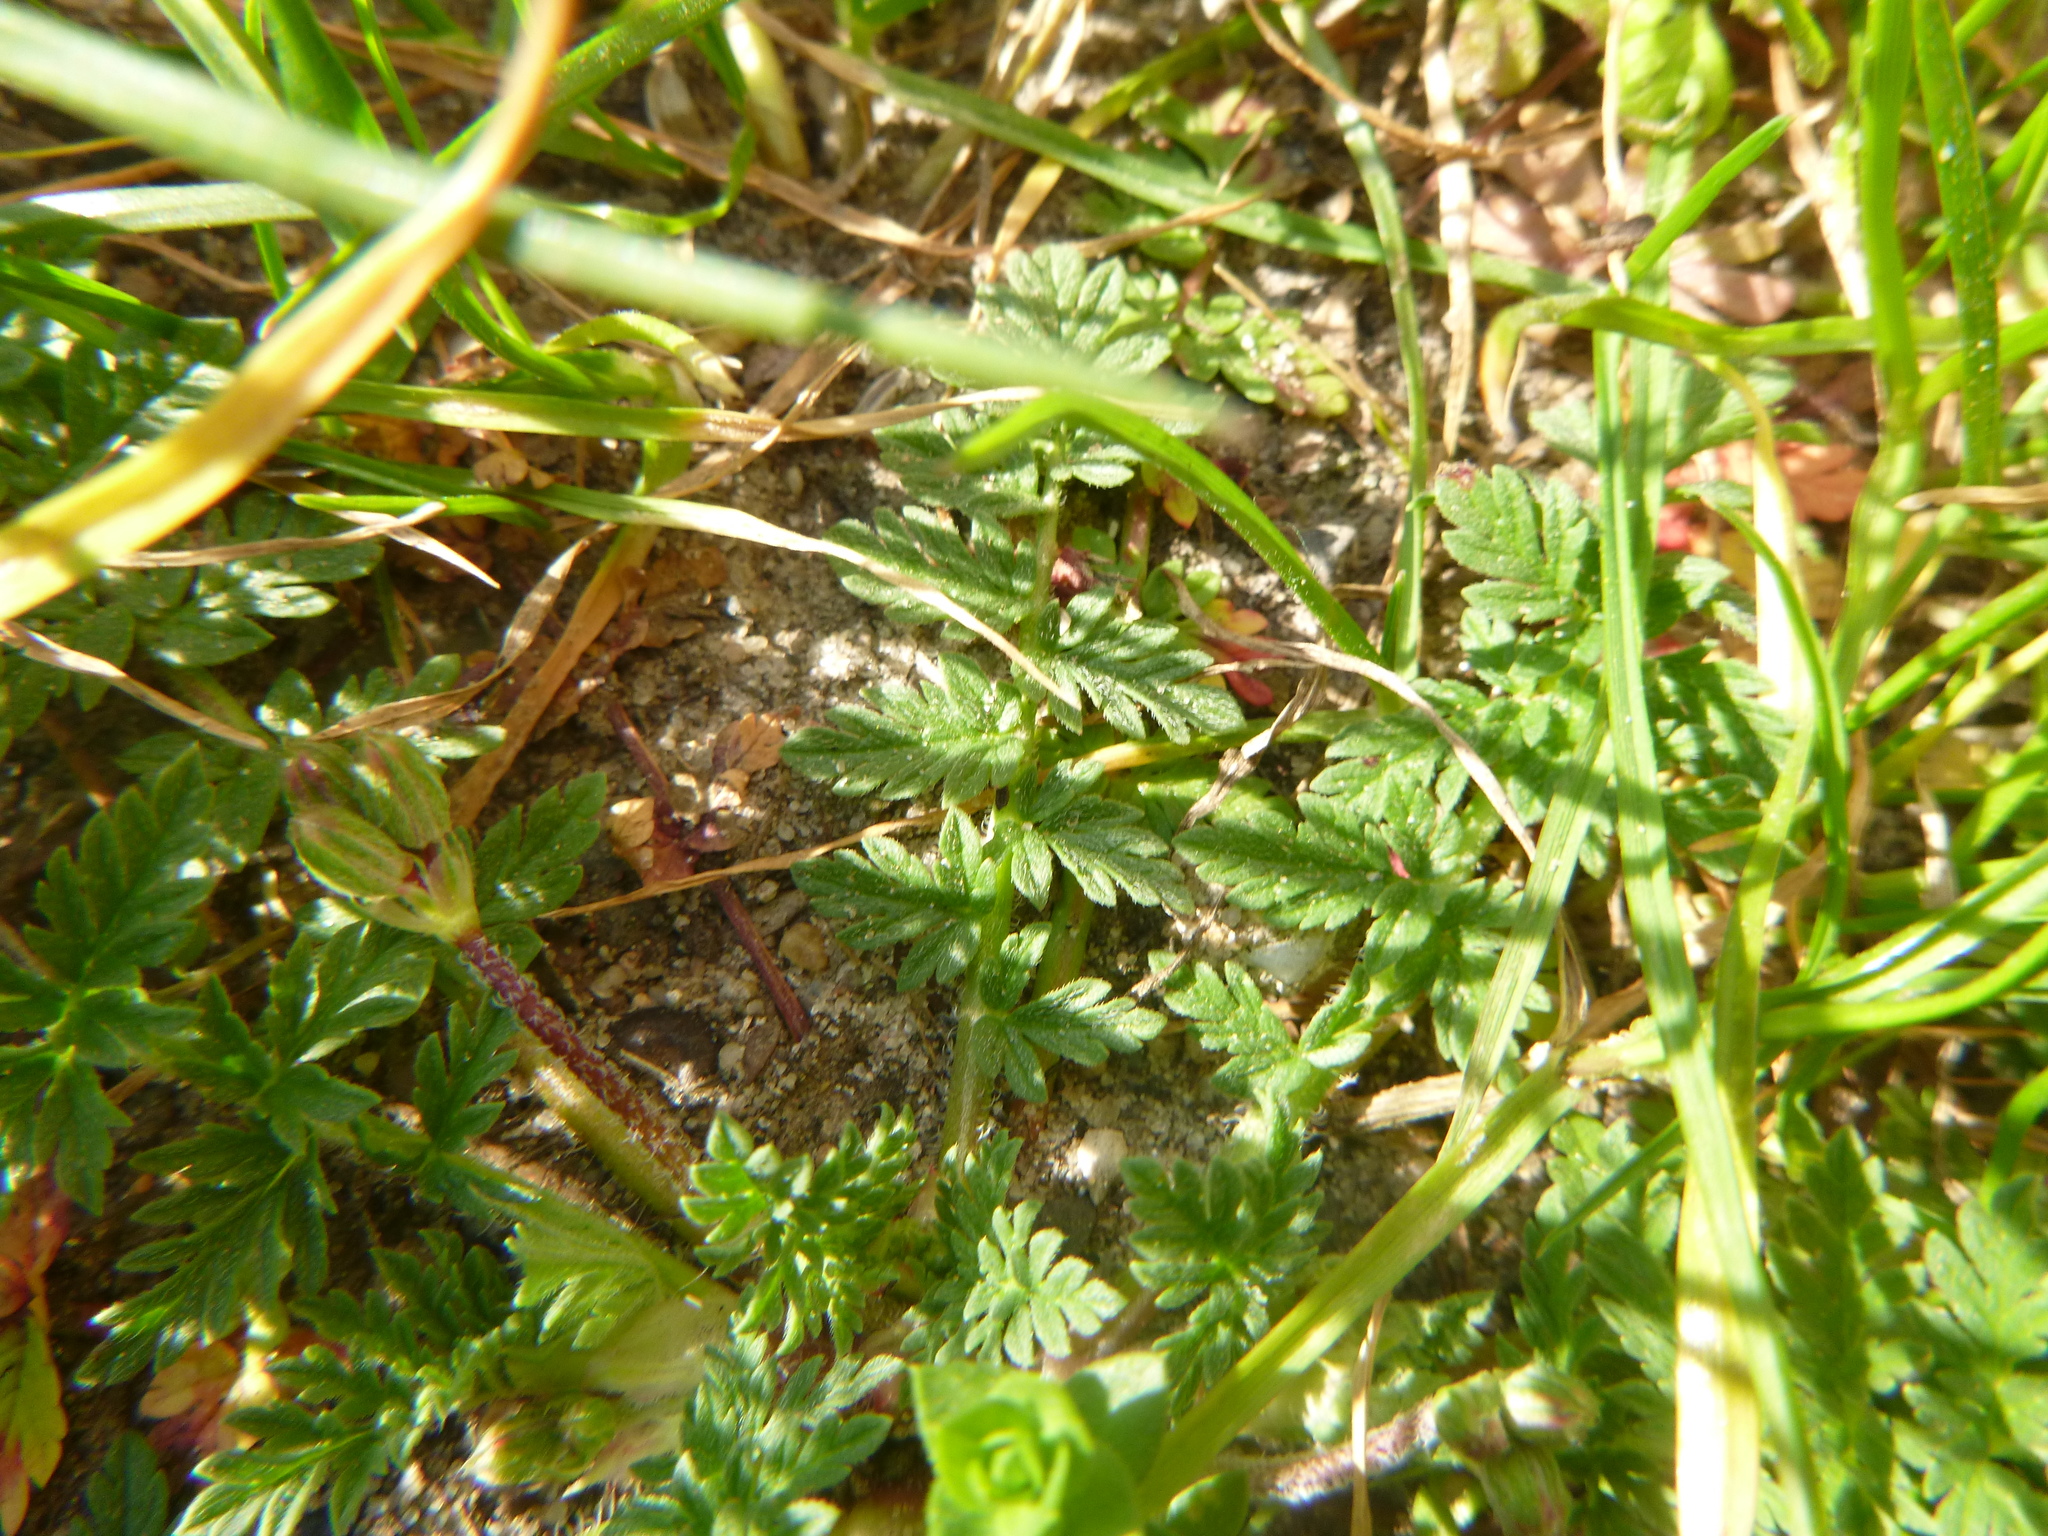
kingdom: Plantae
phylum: Tracheophyta
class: Magnoliopsida
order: Geraniales
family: Geraniaceae
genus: Erodium
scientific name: Erodium cicutarium
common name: Common stork's-bill
